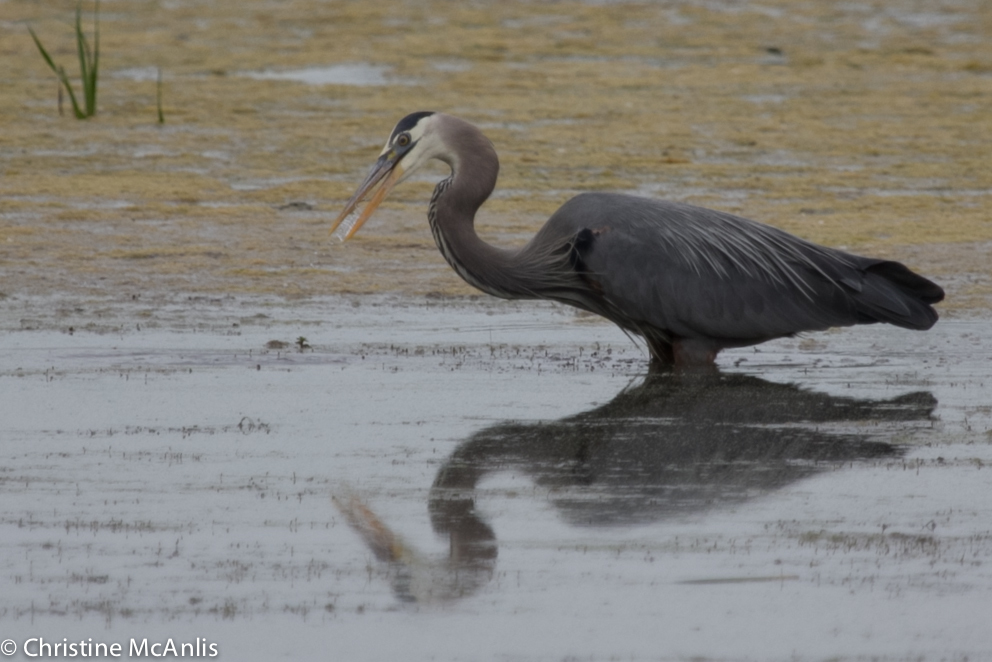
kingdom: Animalia
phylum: Chordata
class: Aves
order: Pelecaniformes
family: Ardeidae
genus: Ardea
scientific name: Ardea herodias
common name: Great blue heron
